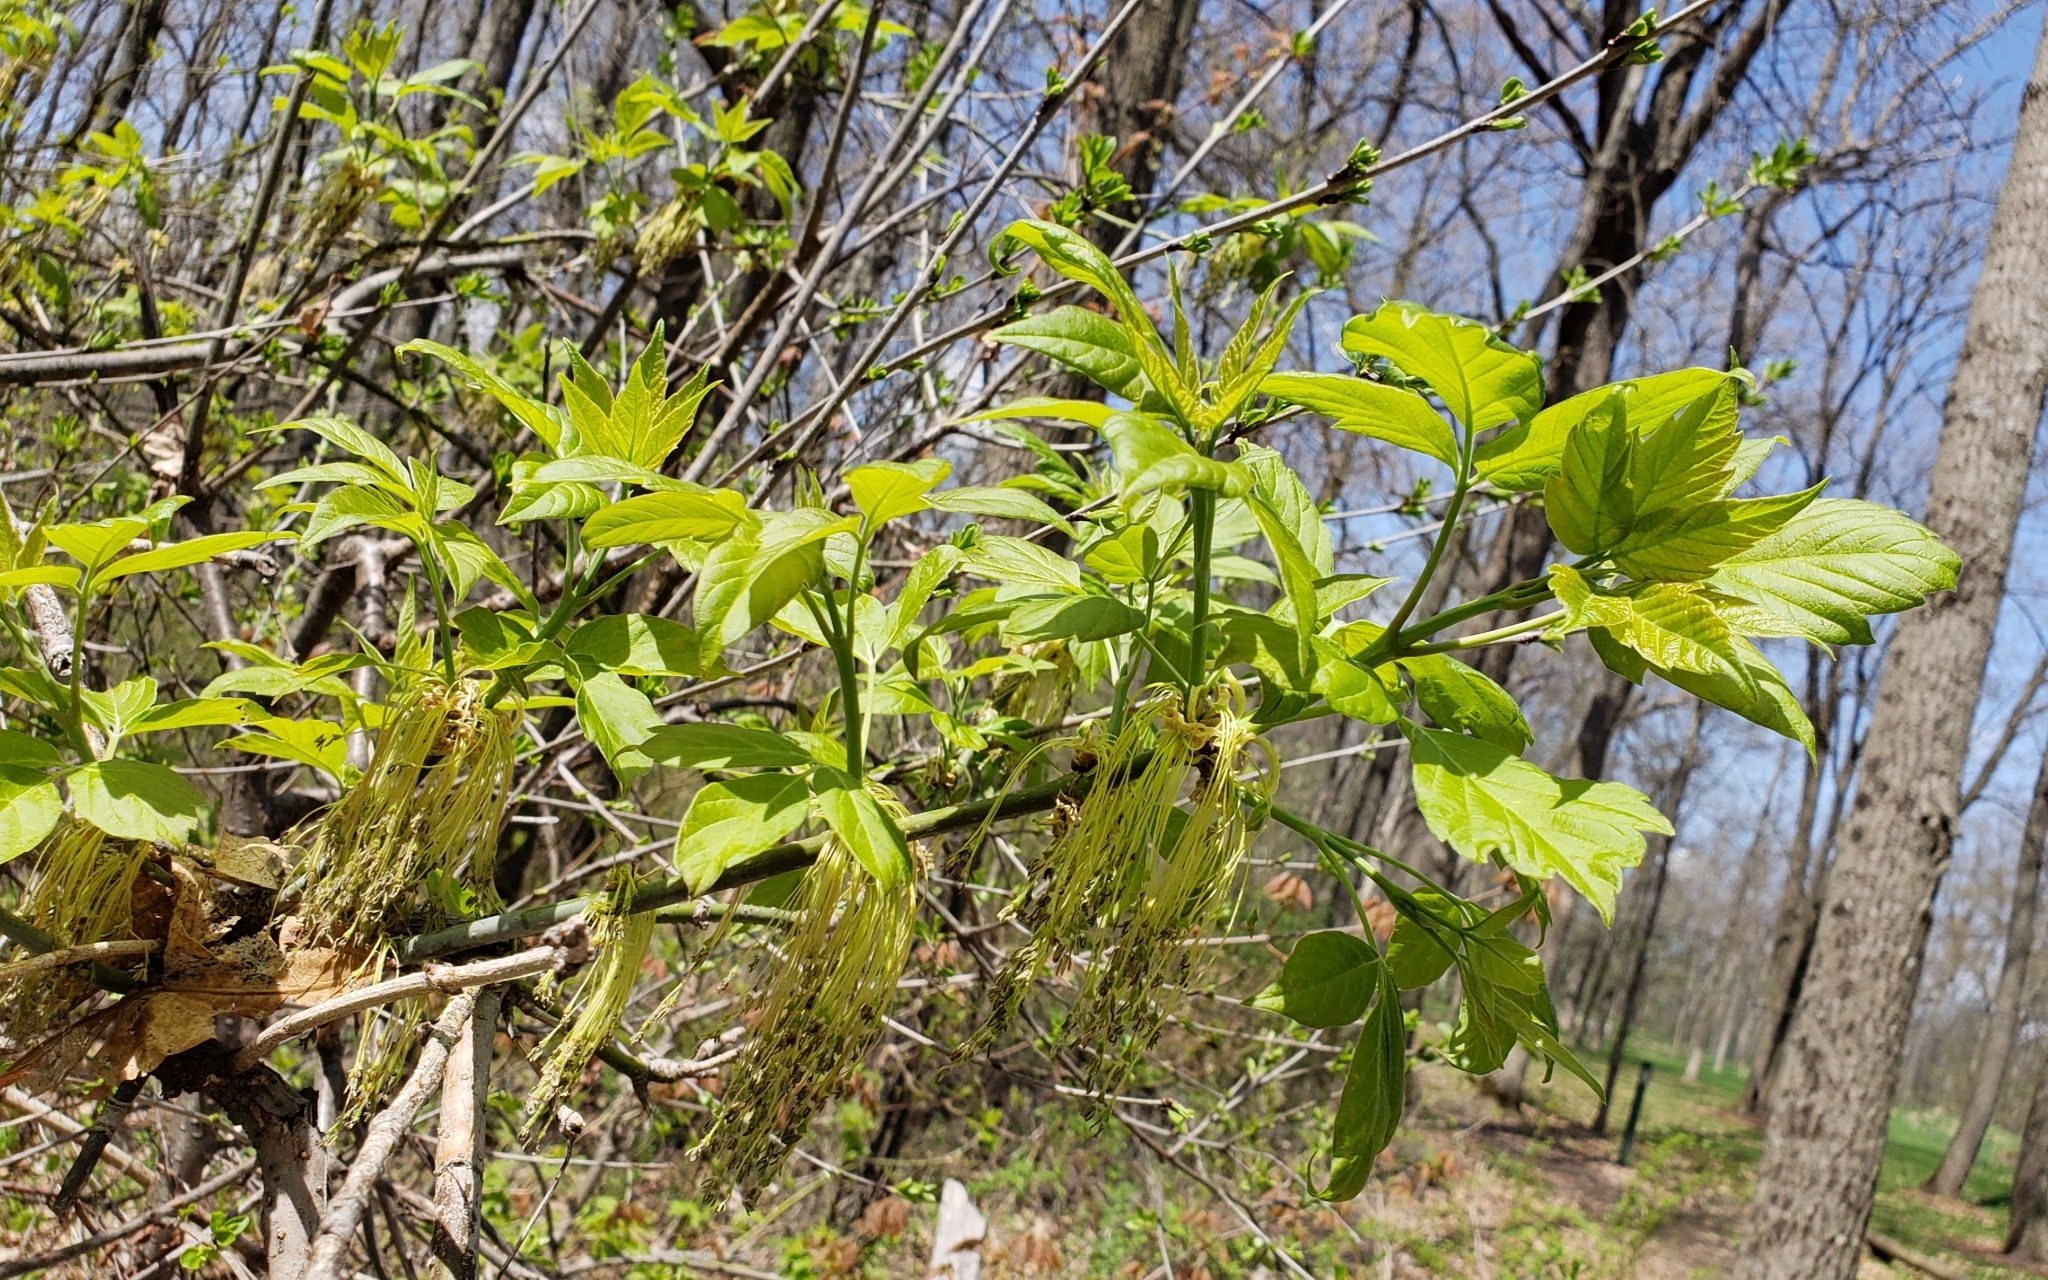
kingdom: Plantae
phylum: Tracheophyta
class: Magnoliopsida
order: Sapindales
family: Sapindaceae
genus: Acer
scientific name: Acer negundo
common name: Ashleaf maple
